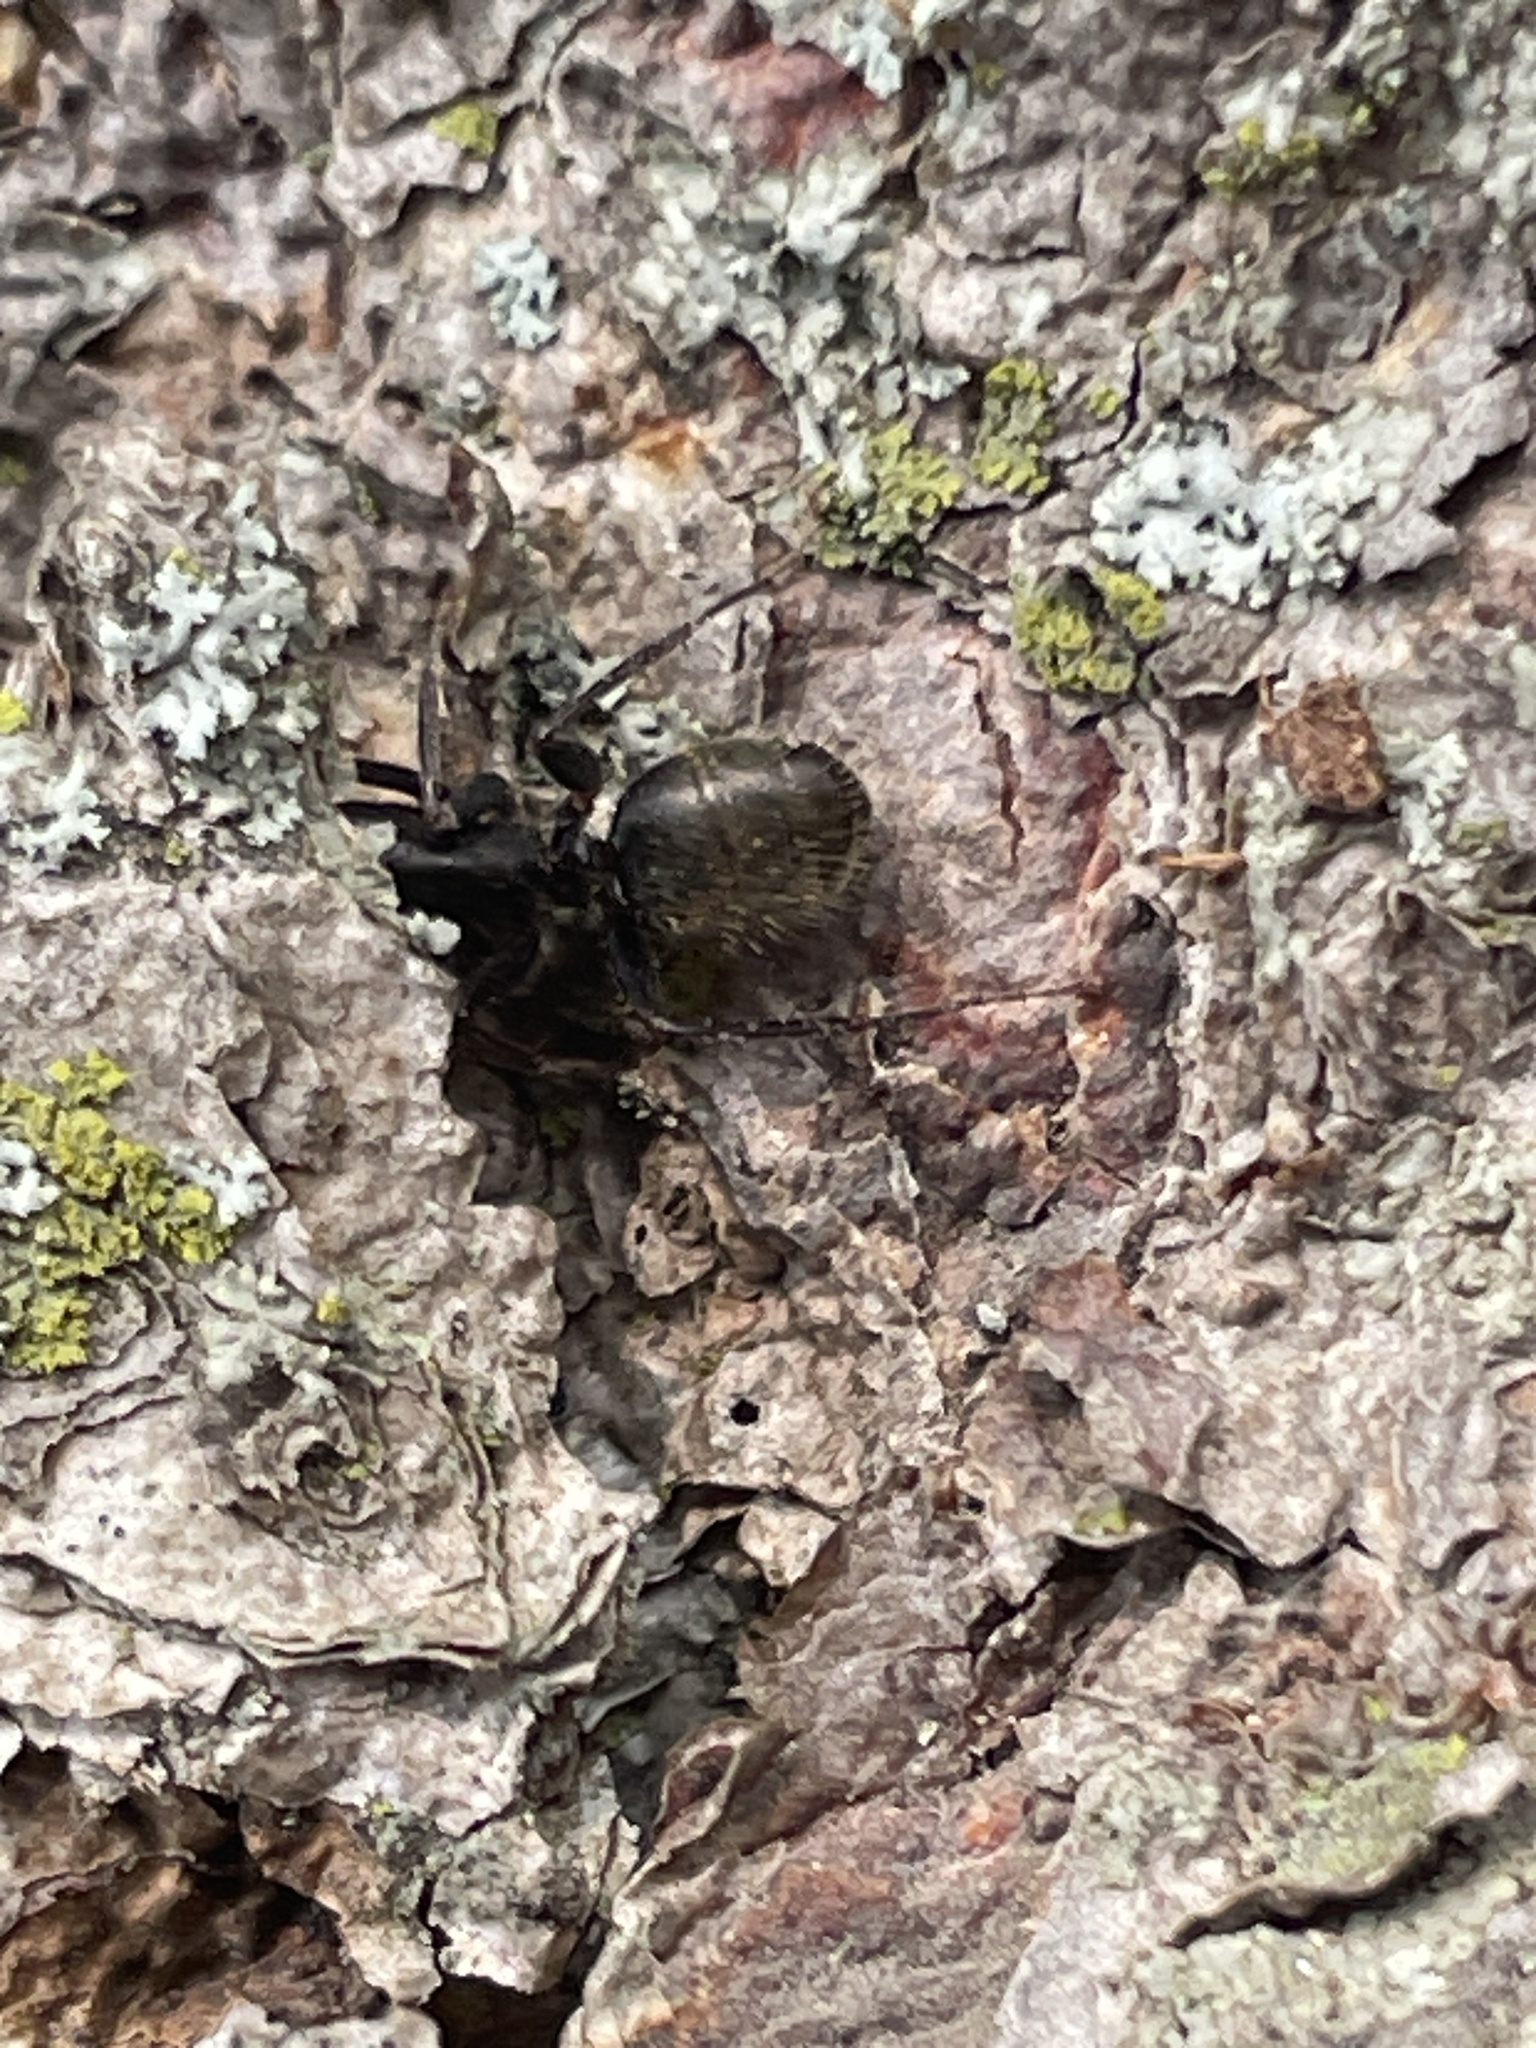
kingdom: Animalia
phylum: Arthropoda
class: Insecta
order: Hymenoptera
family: Formicidae
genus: Camponotus
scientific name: Camponotus pennsylvanicus
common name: Black carpenter ant
